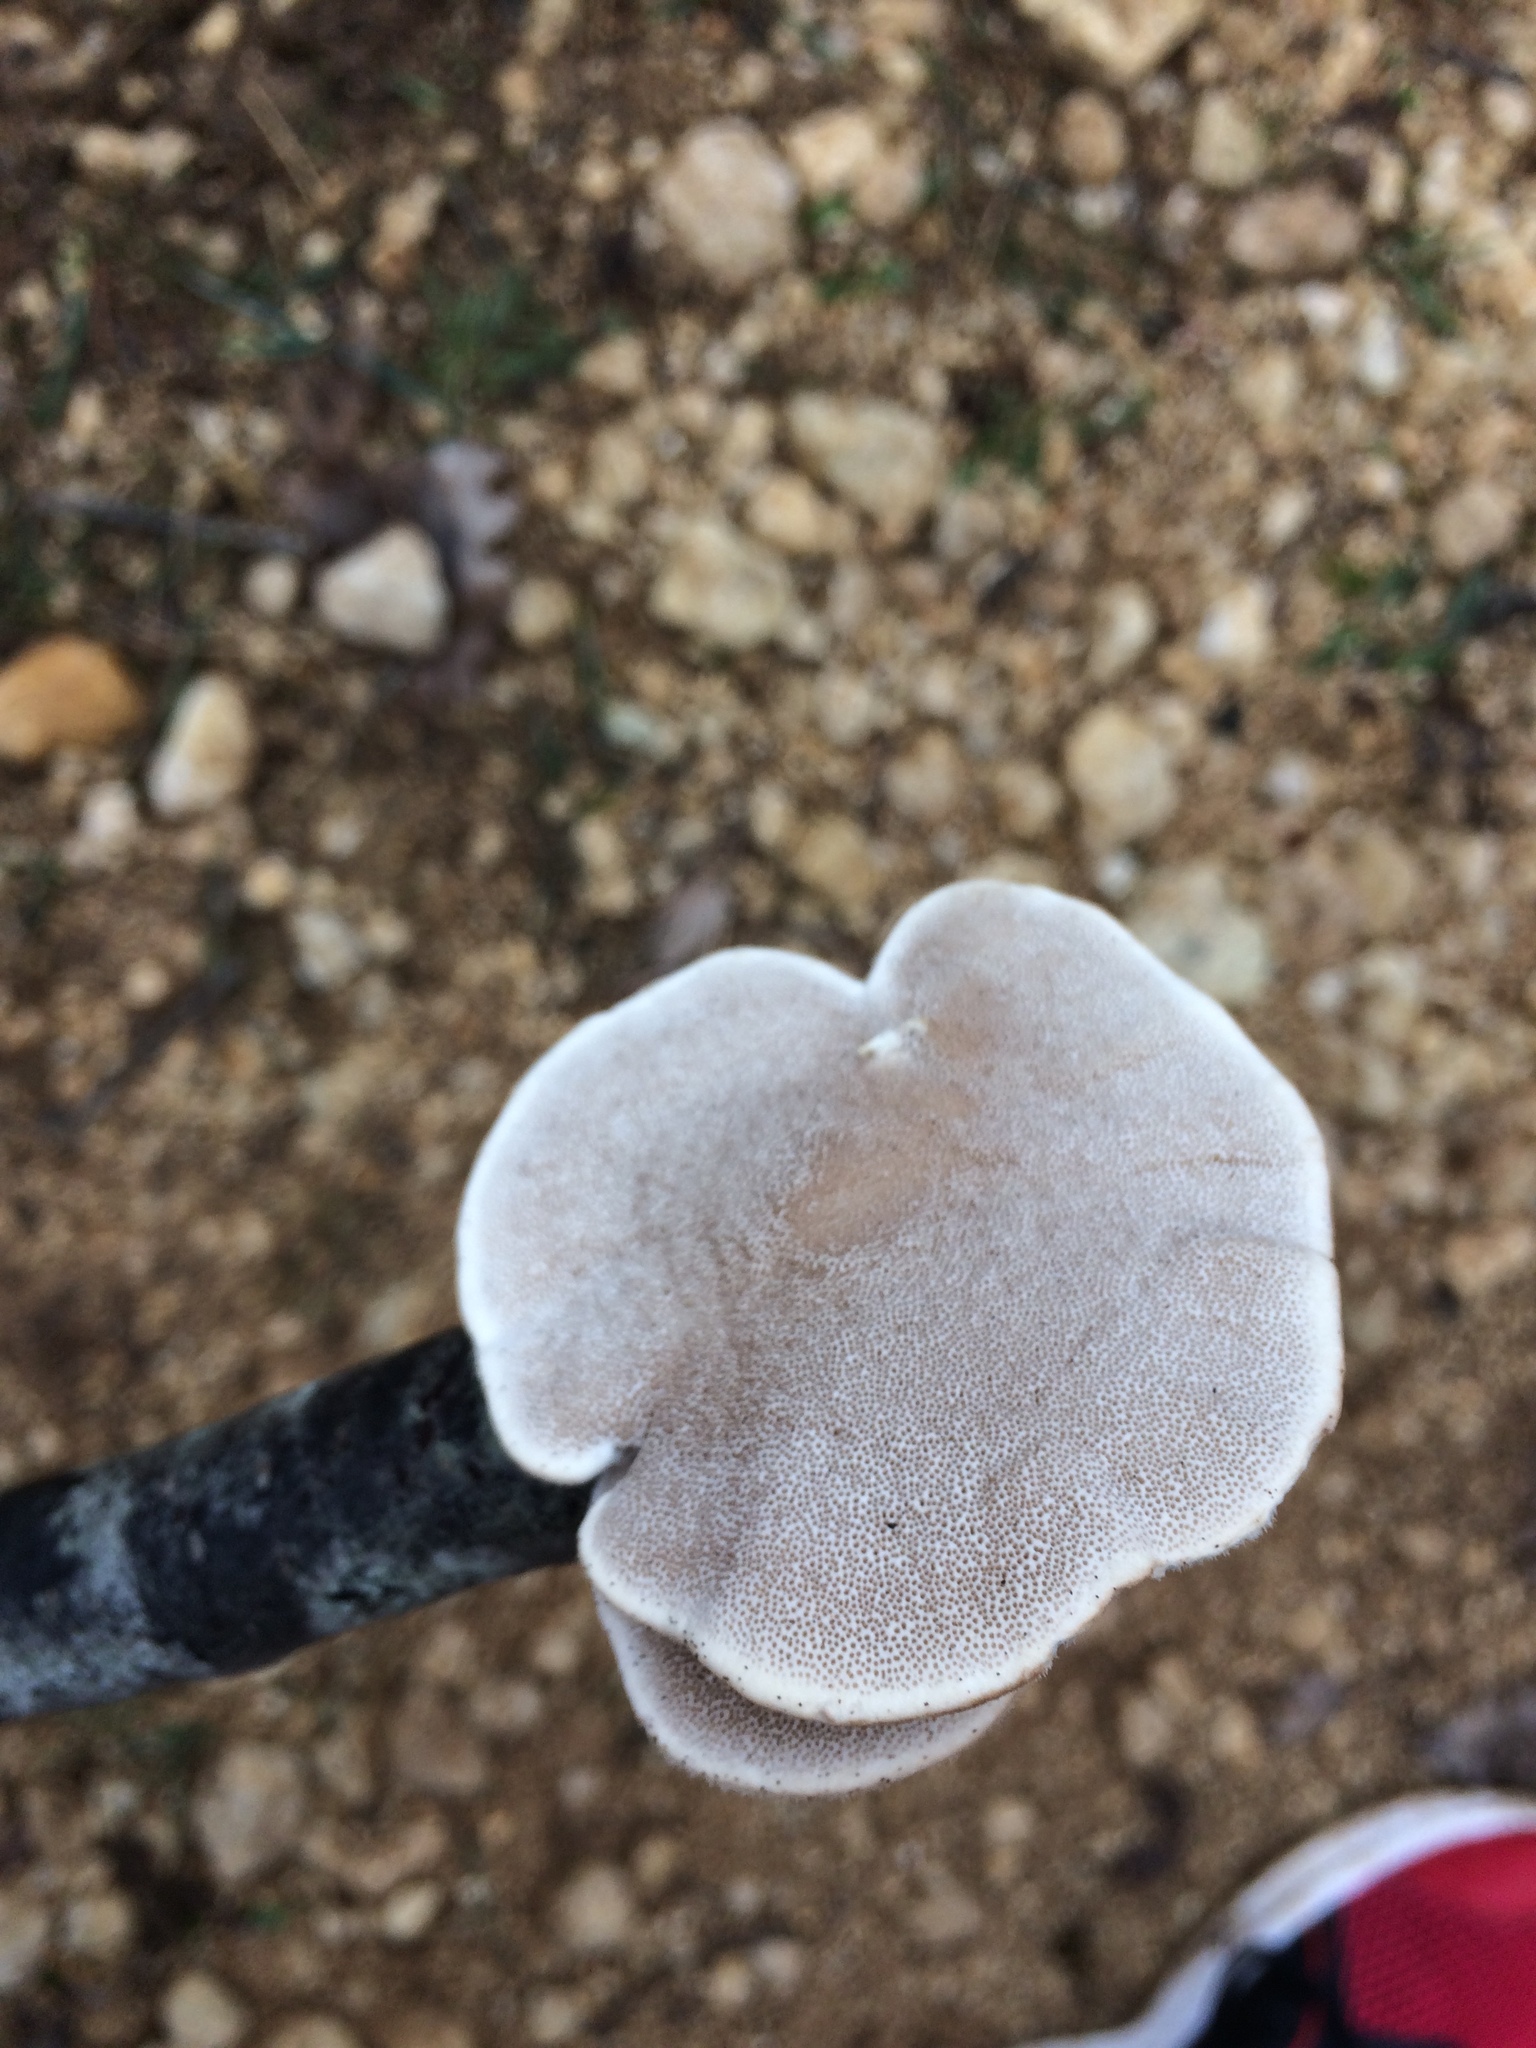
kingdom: Fungi
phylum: Basidiomycota
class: Agaricomycetes
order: Polyporales
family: Polyporaceae
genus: Trametes
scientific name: Trametes hirsuta
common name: Hairy bracket
